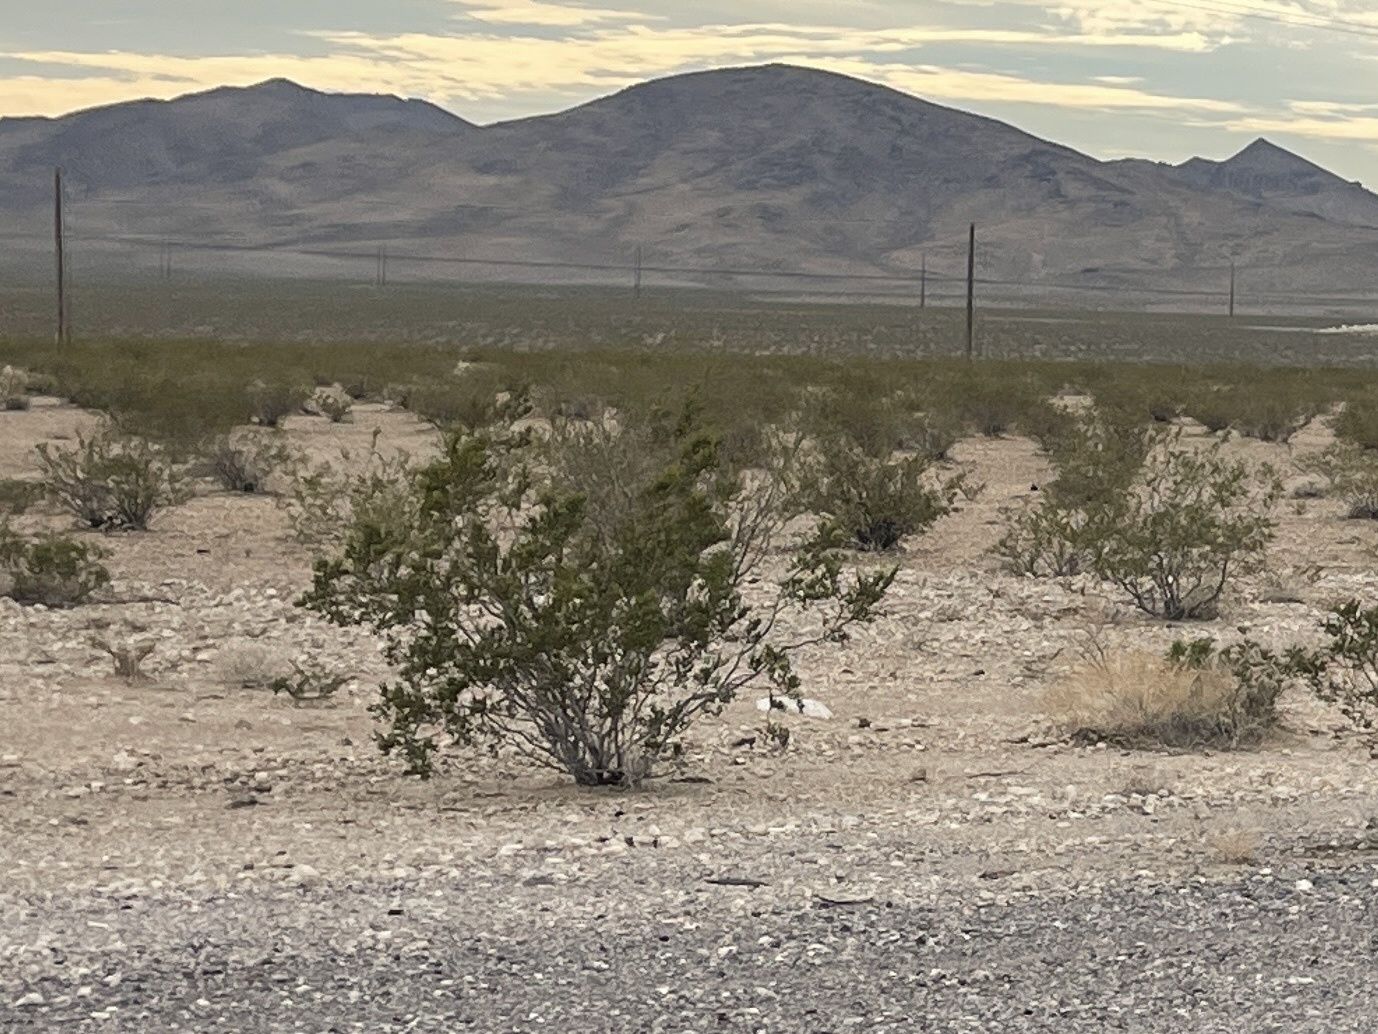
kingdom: Plantae
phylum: Tracheophyta
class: Magnoliopsida
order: Zygophyllales
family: Zygophyllaceae
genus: Larrea
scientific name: Larrea tridentata
